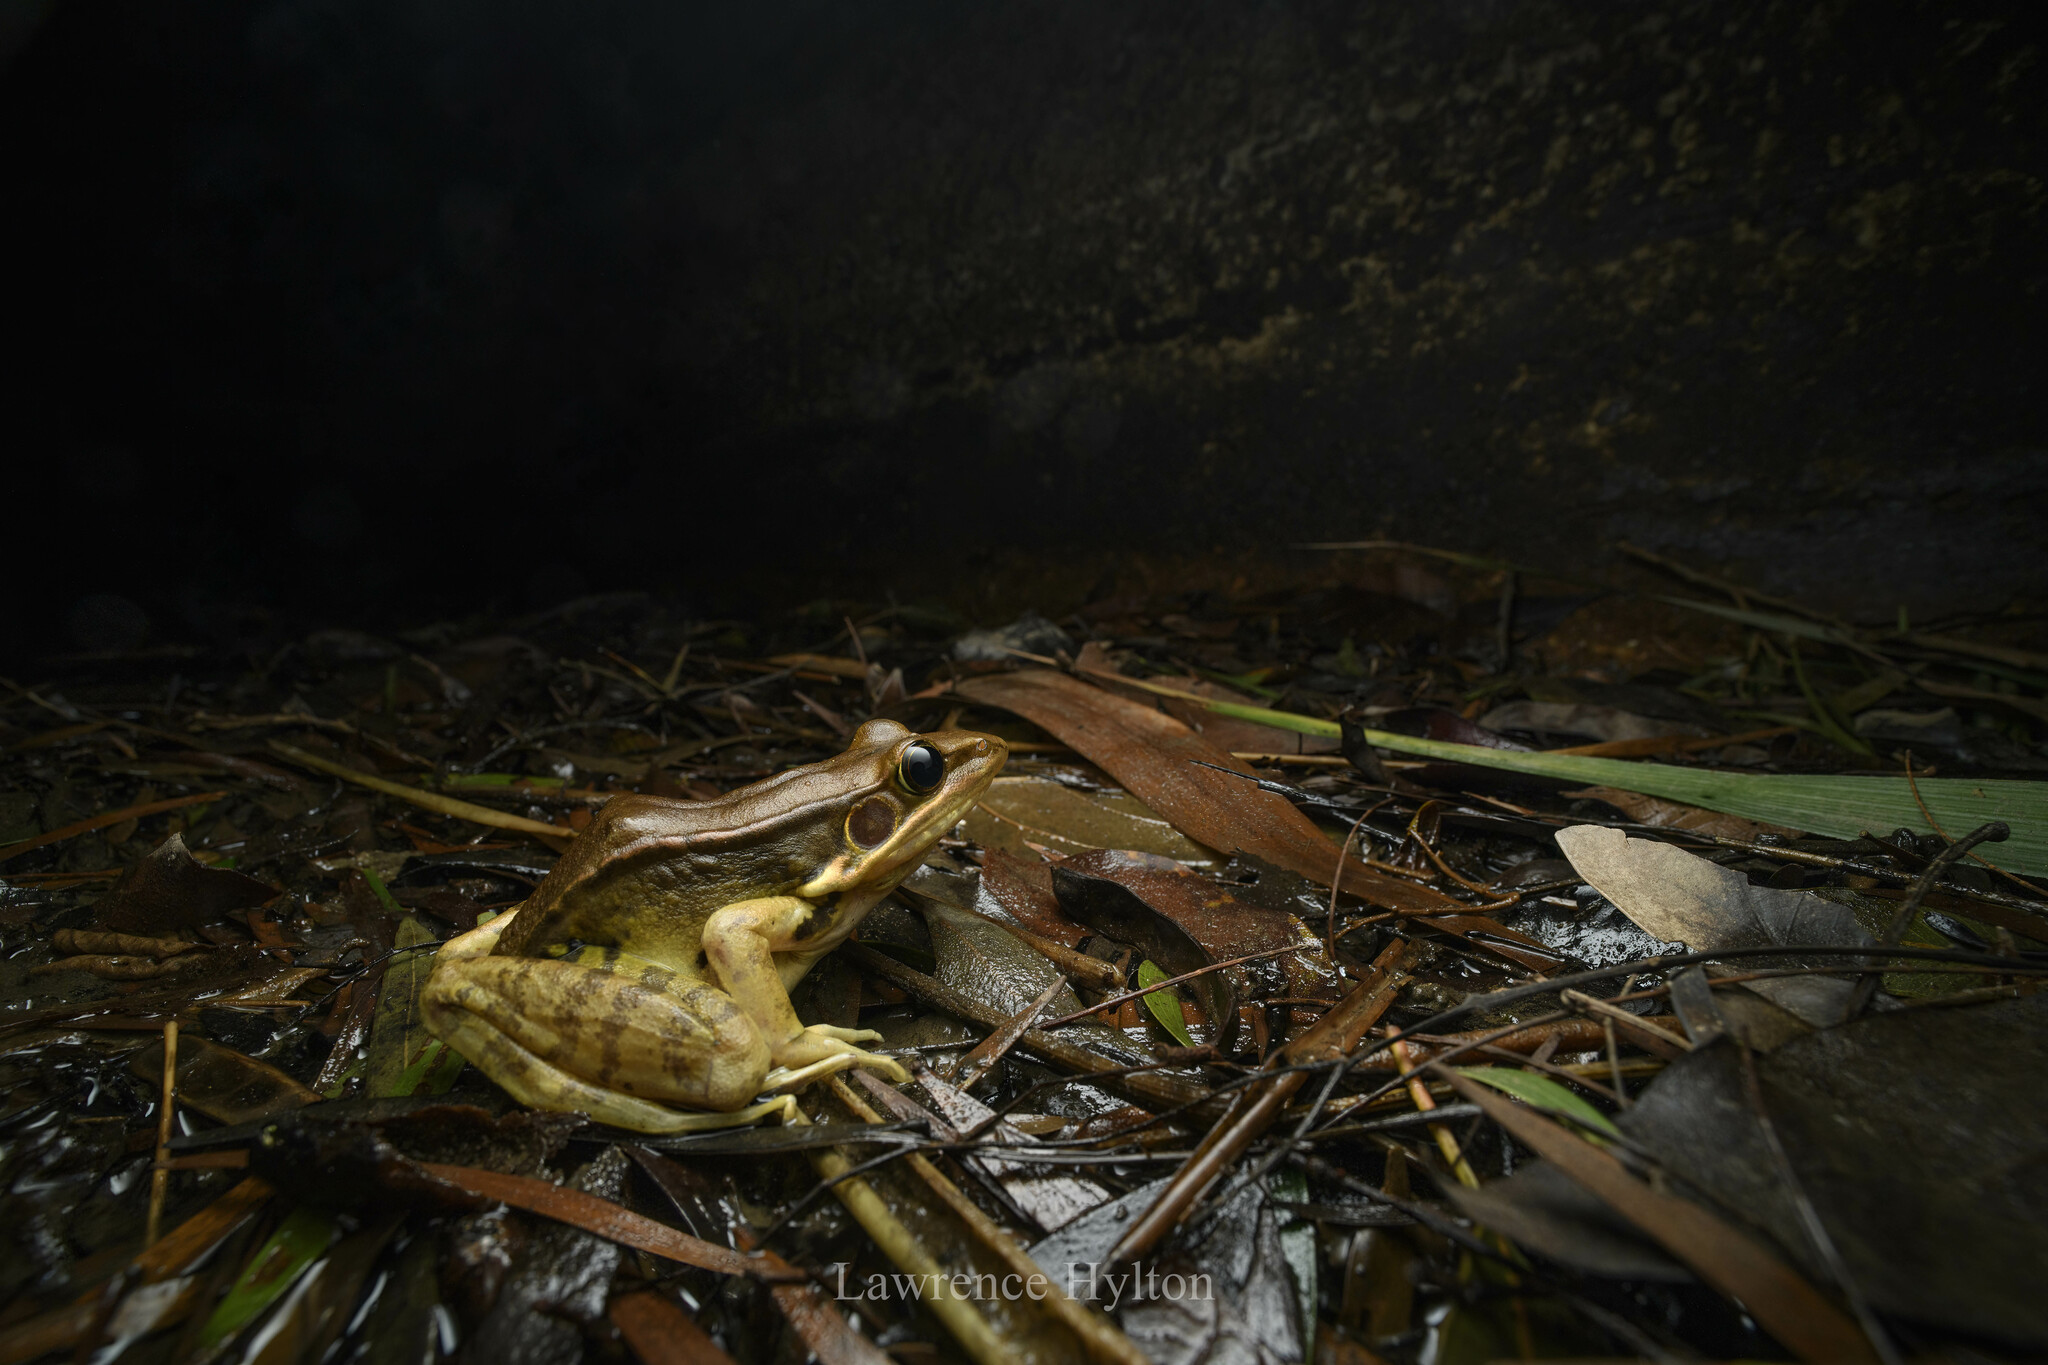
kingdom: Animalia
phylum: Chordata
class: Amphibia
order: Anura
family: Ranidae
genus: Sylvirana
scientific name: Sylvirana guentheri
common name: Guenther's amoy frog
